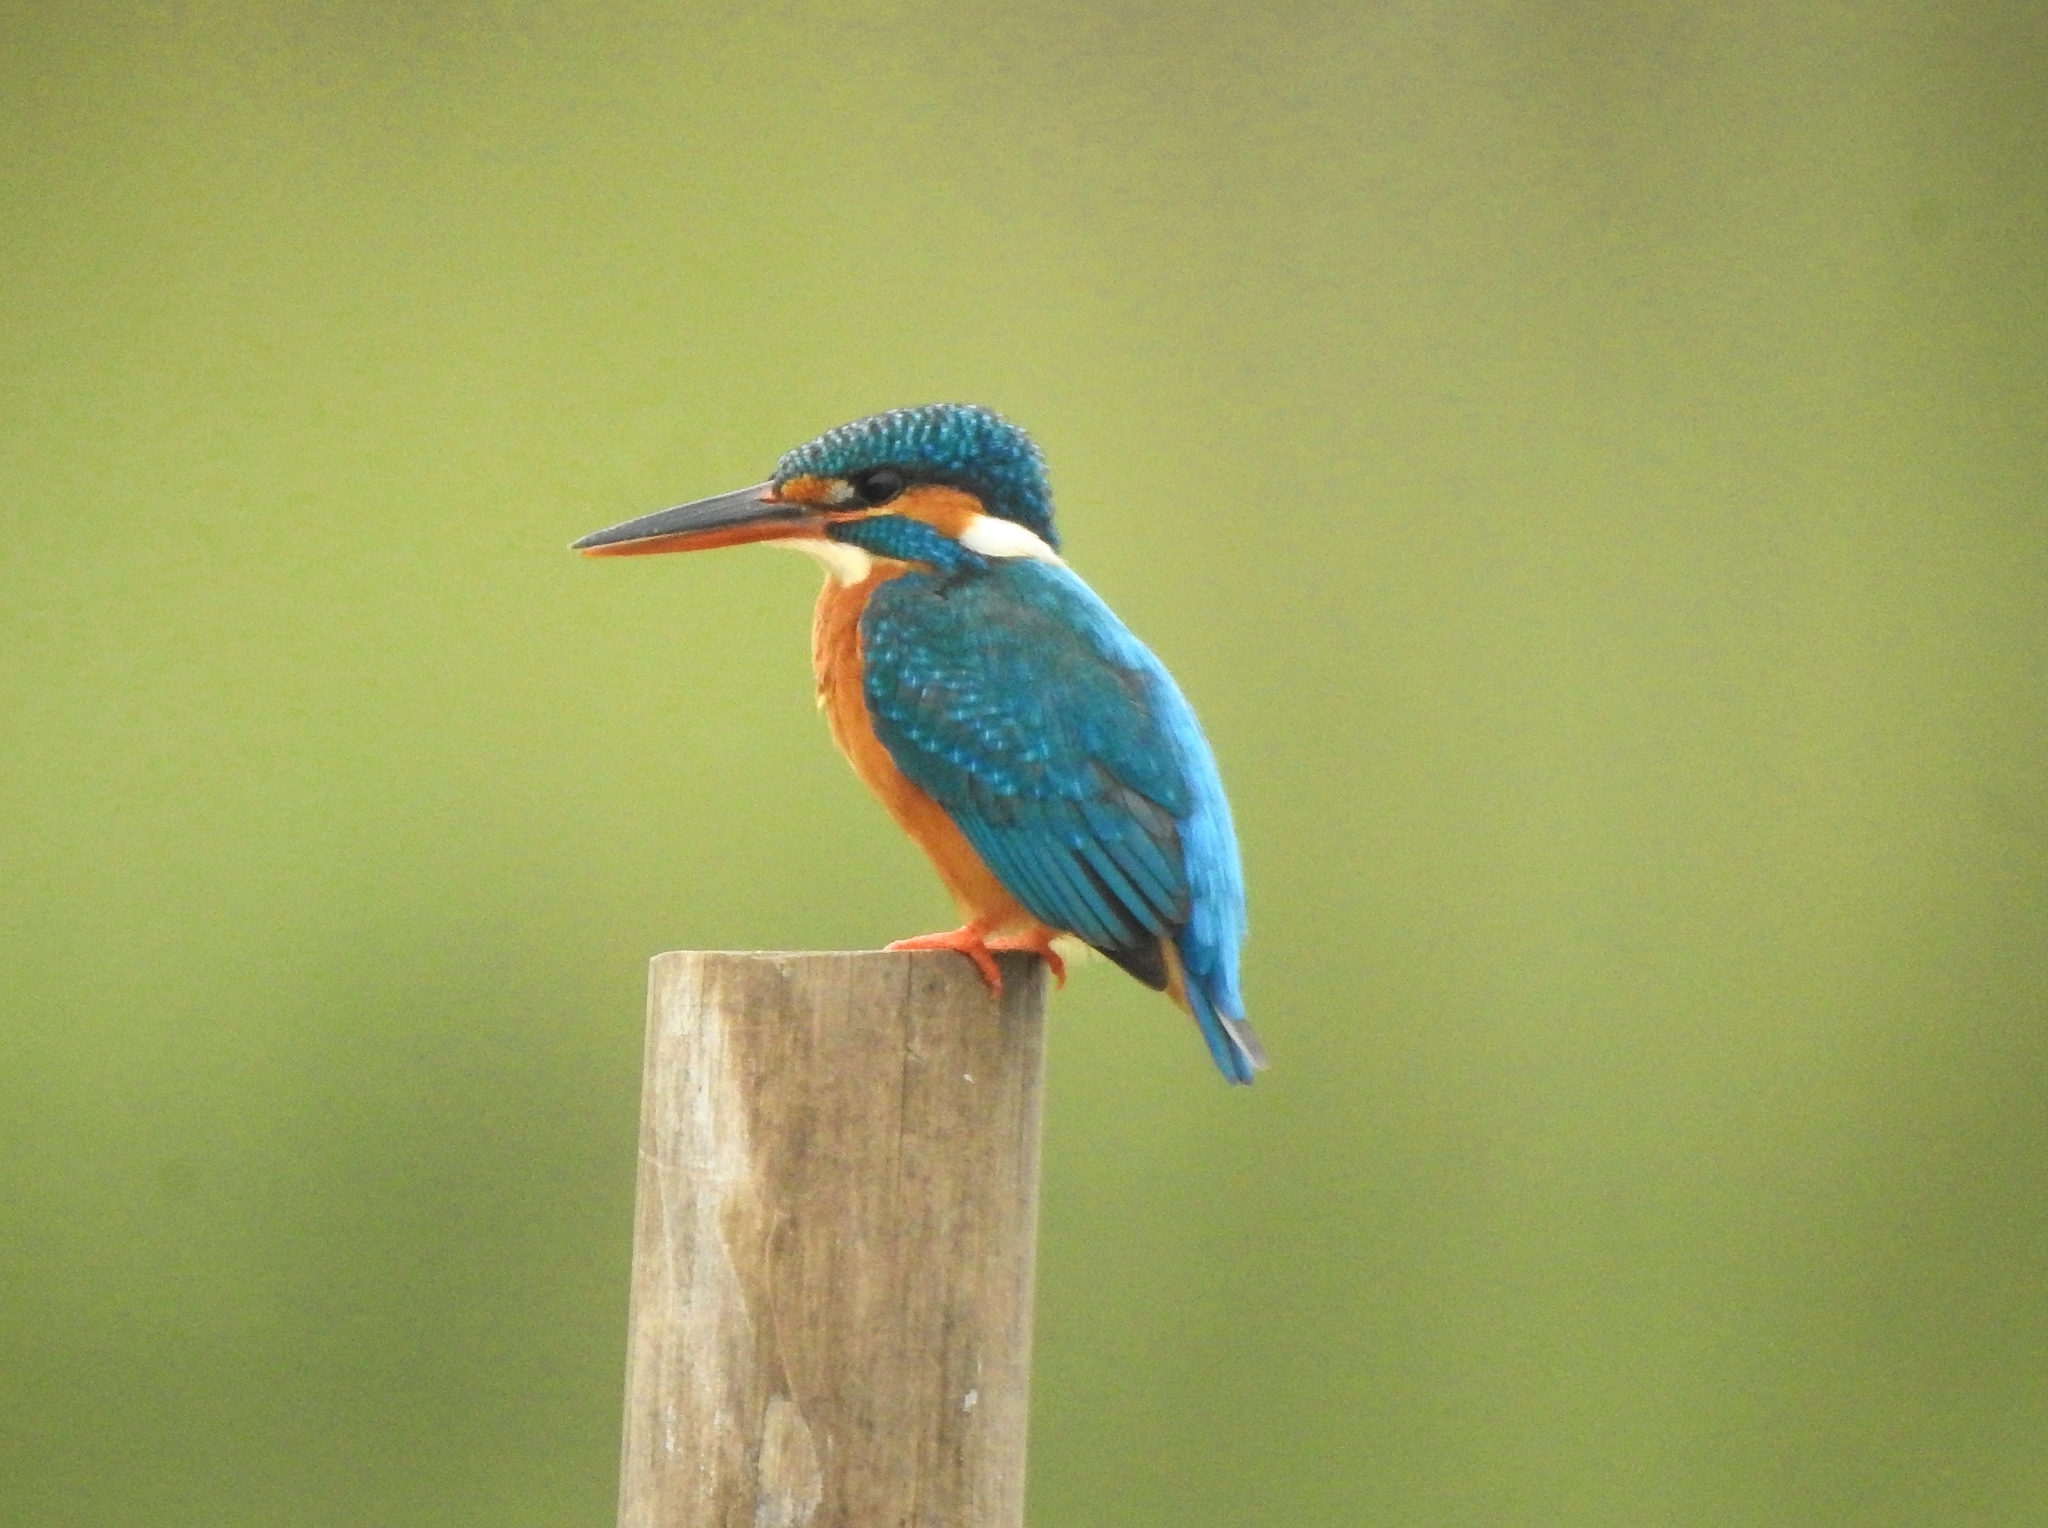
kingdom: Animalia
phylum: Chordata
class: Aves
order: Coraciiformes
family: Alcedinidae
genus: Alcedo
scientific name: Alcedo atthis
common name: Common kingfisher
